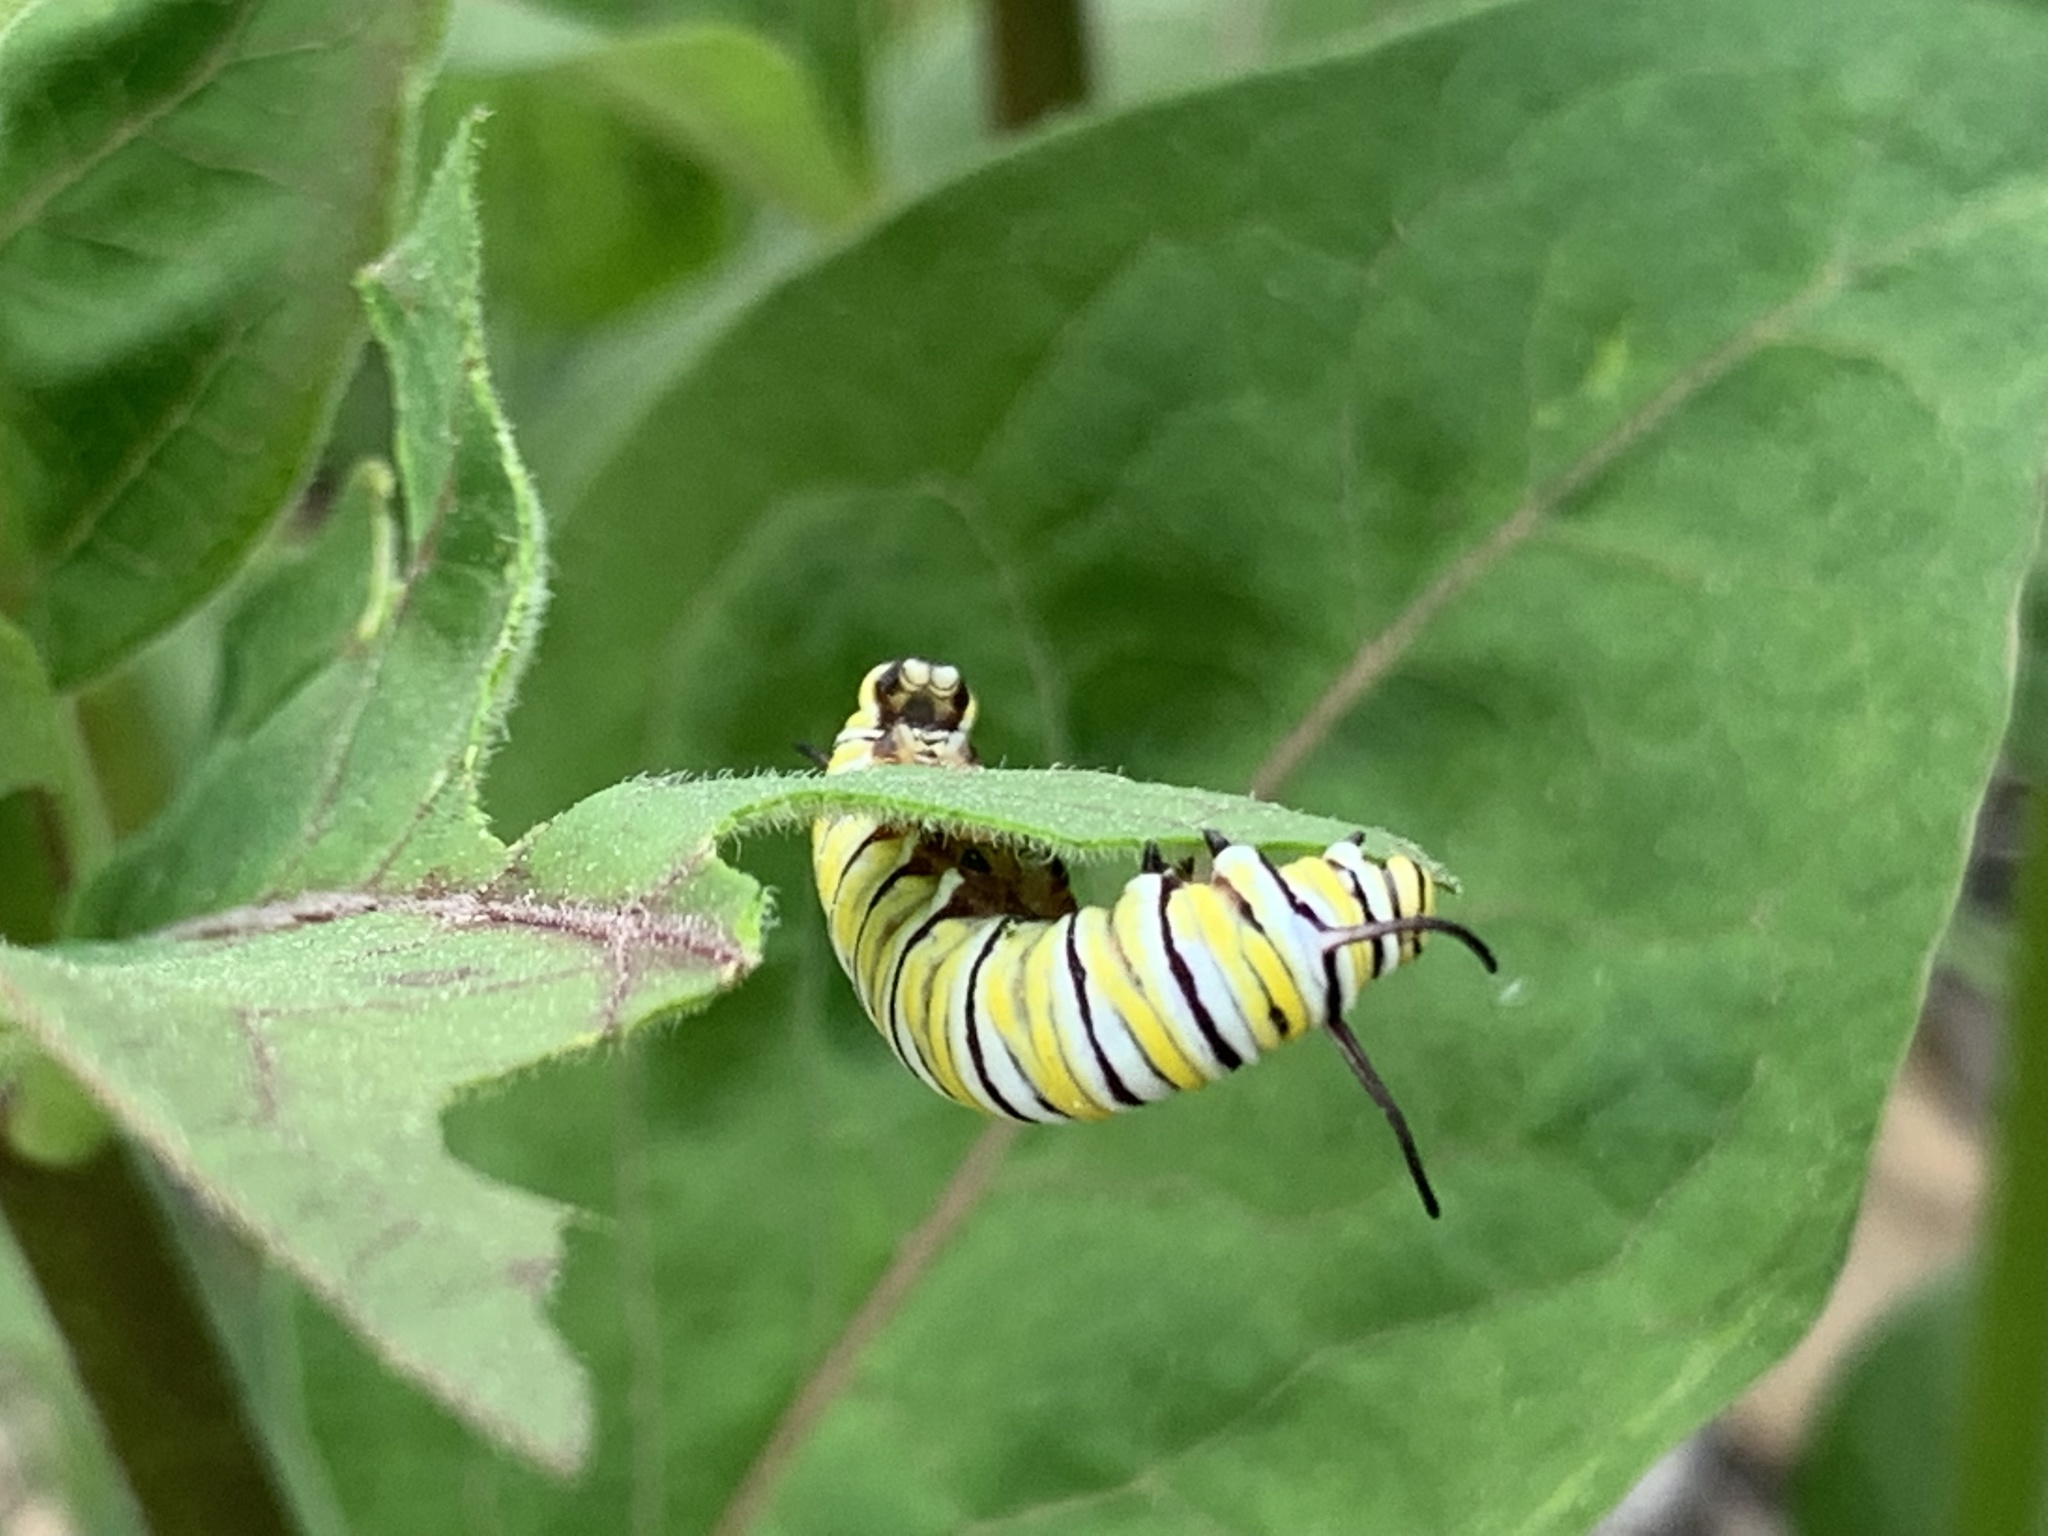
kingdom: Animalia
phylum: Arthropoda
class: Insecta
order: Lepidoptera
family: Nymphalidae
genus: Danaus
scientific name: Danaus plexippus
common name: Monarch
